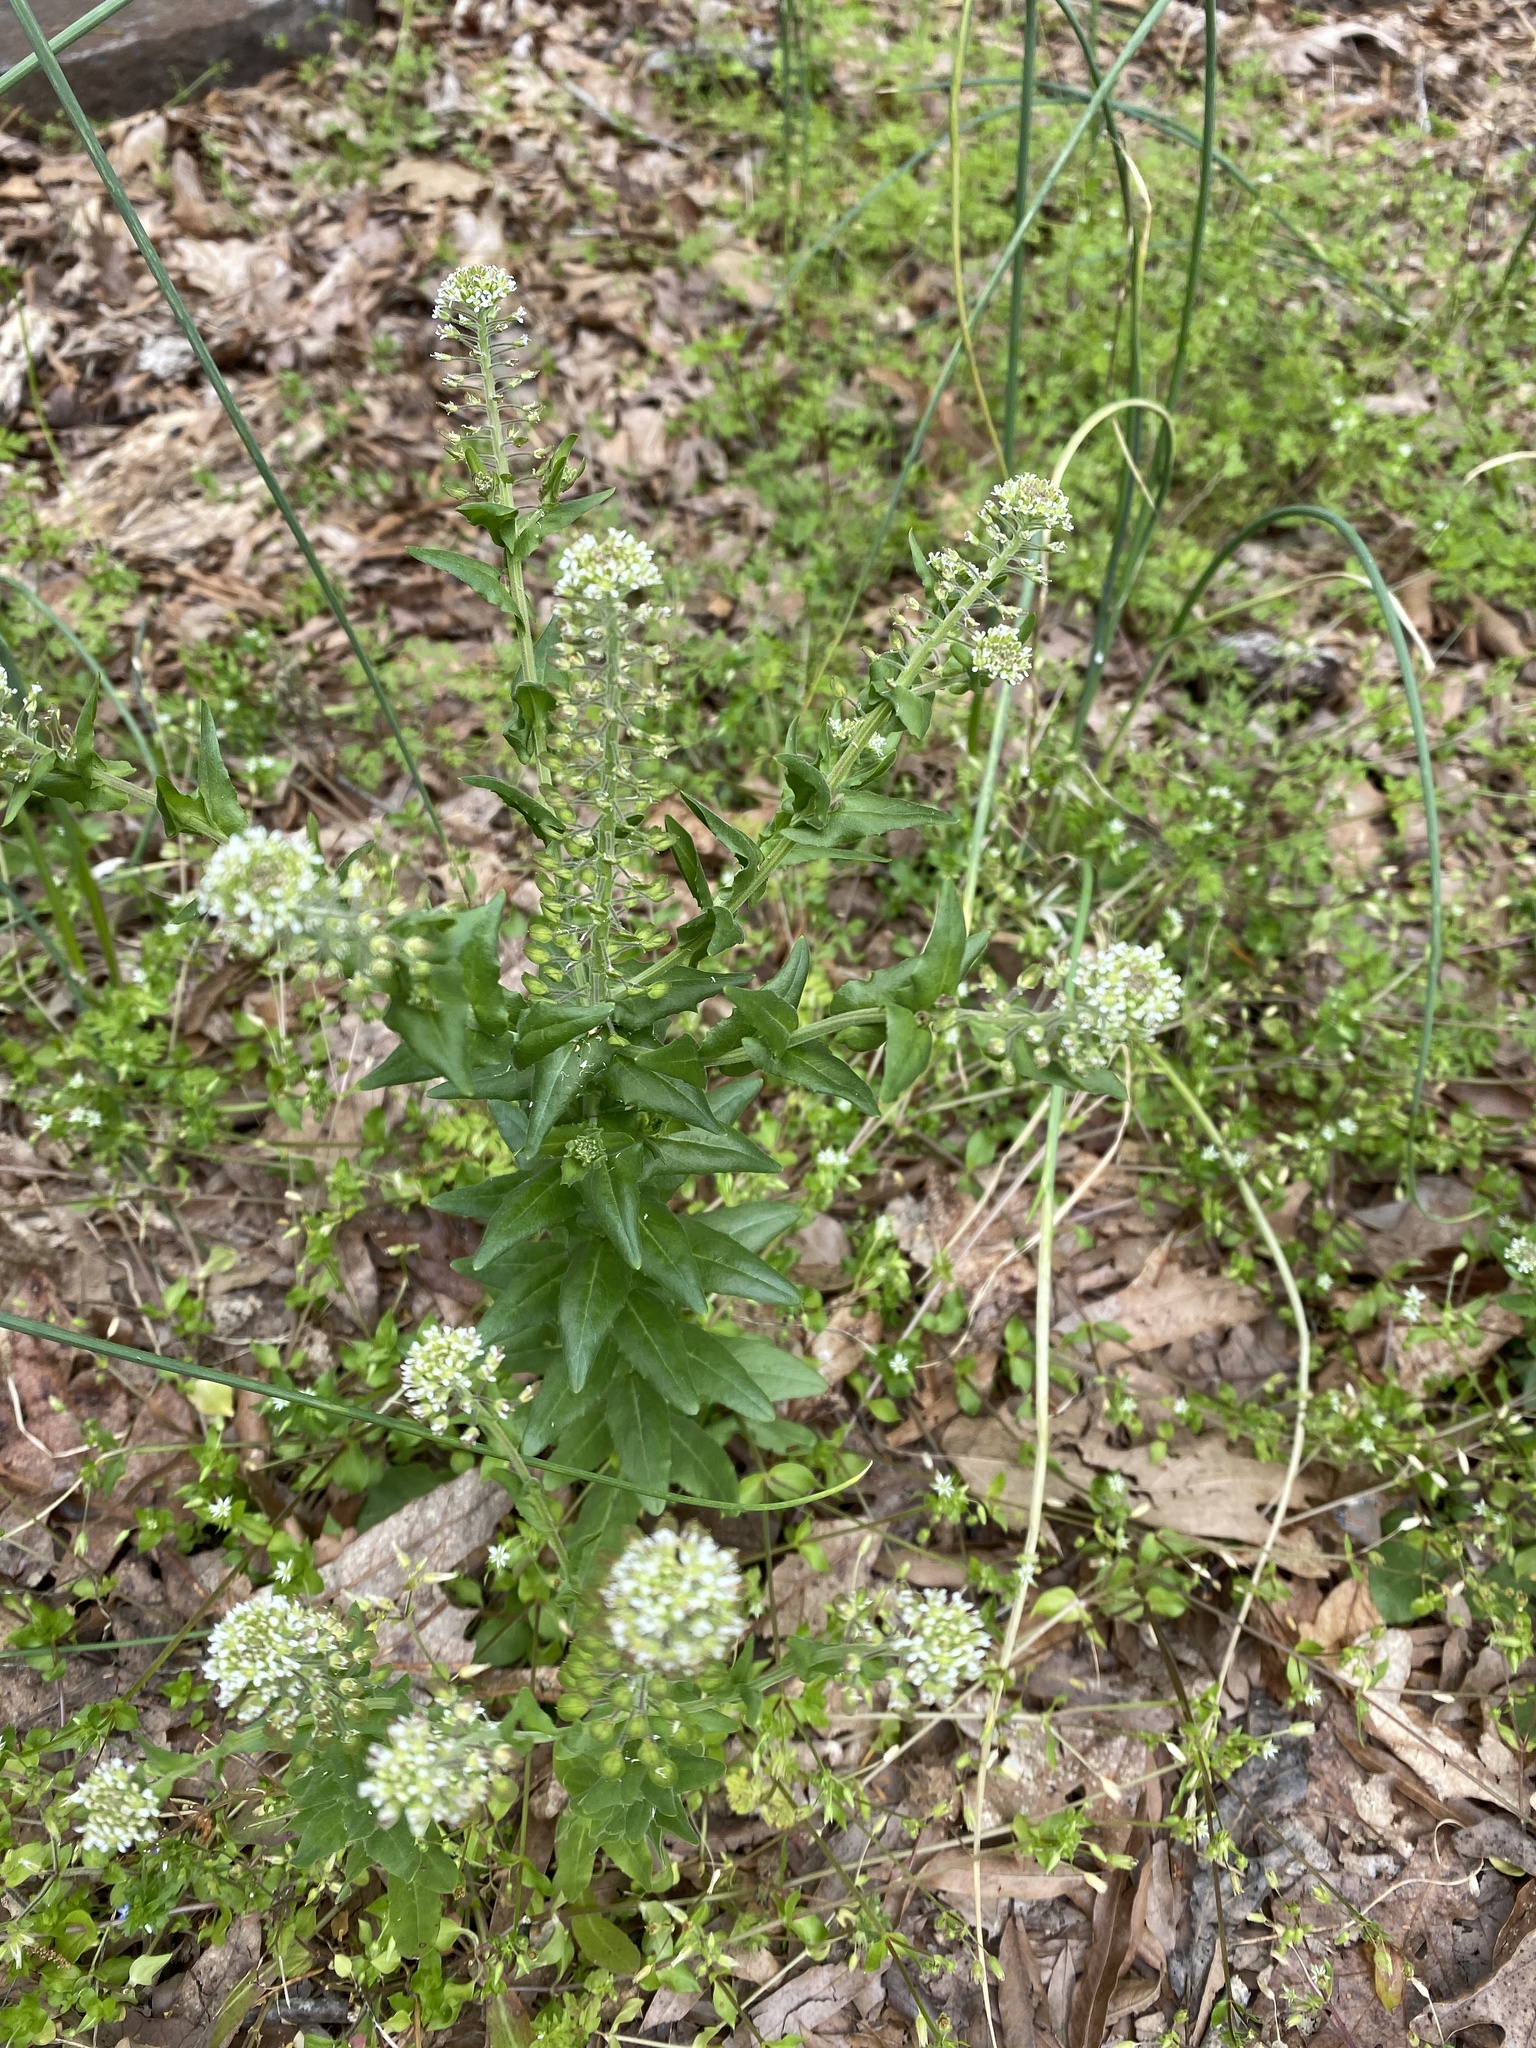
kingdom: Plantae
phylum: Tracheophyta
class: Magnoliopsida
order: Brassicales
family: Brassicaceae
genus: Lepidium
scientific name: Lepidium campestre
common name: Field pepperwort
